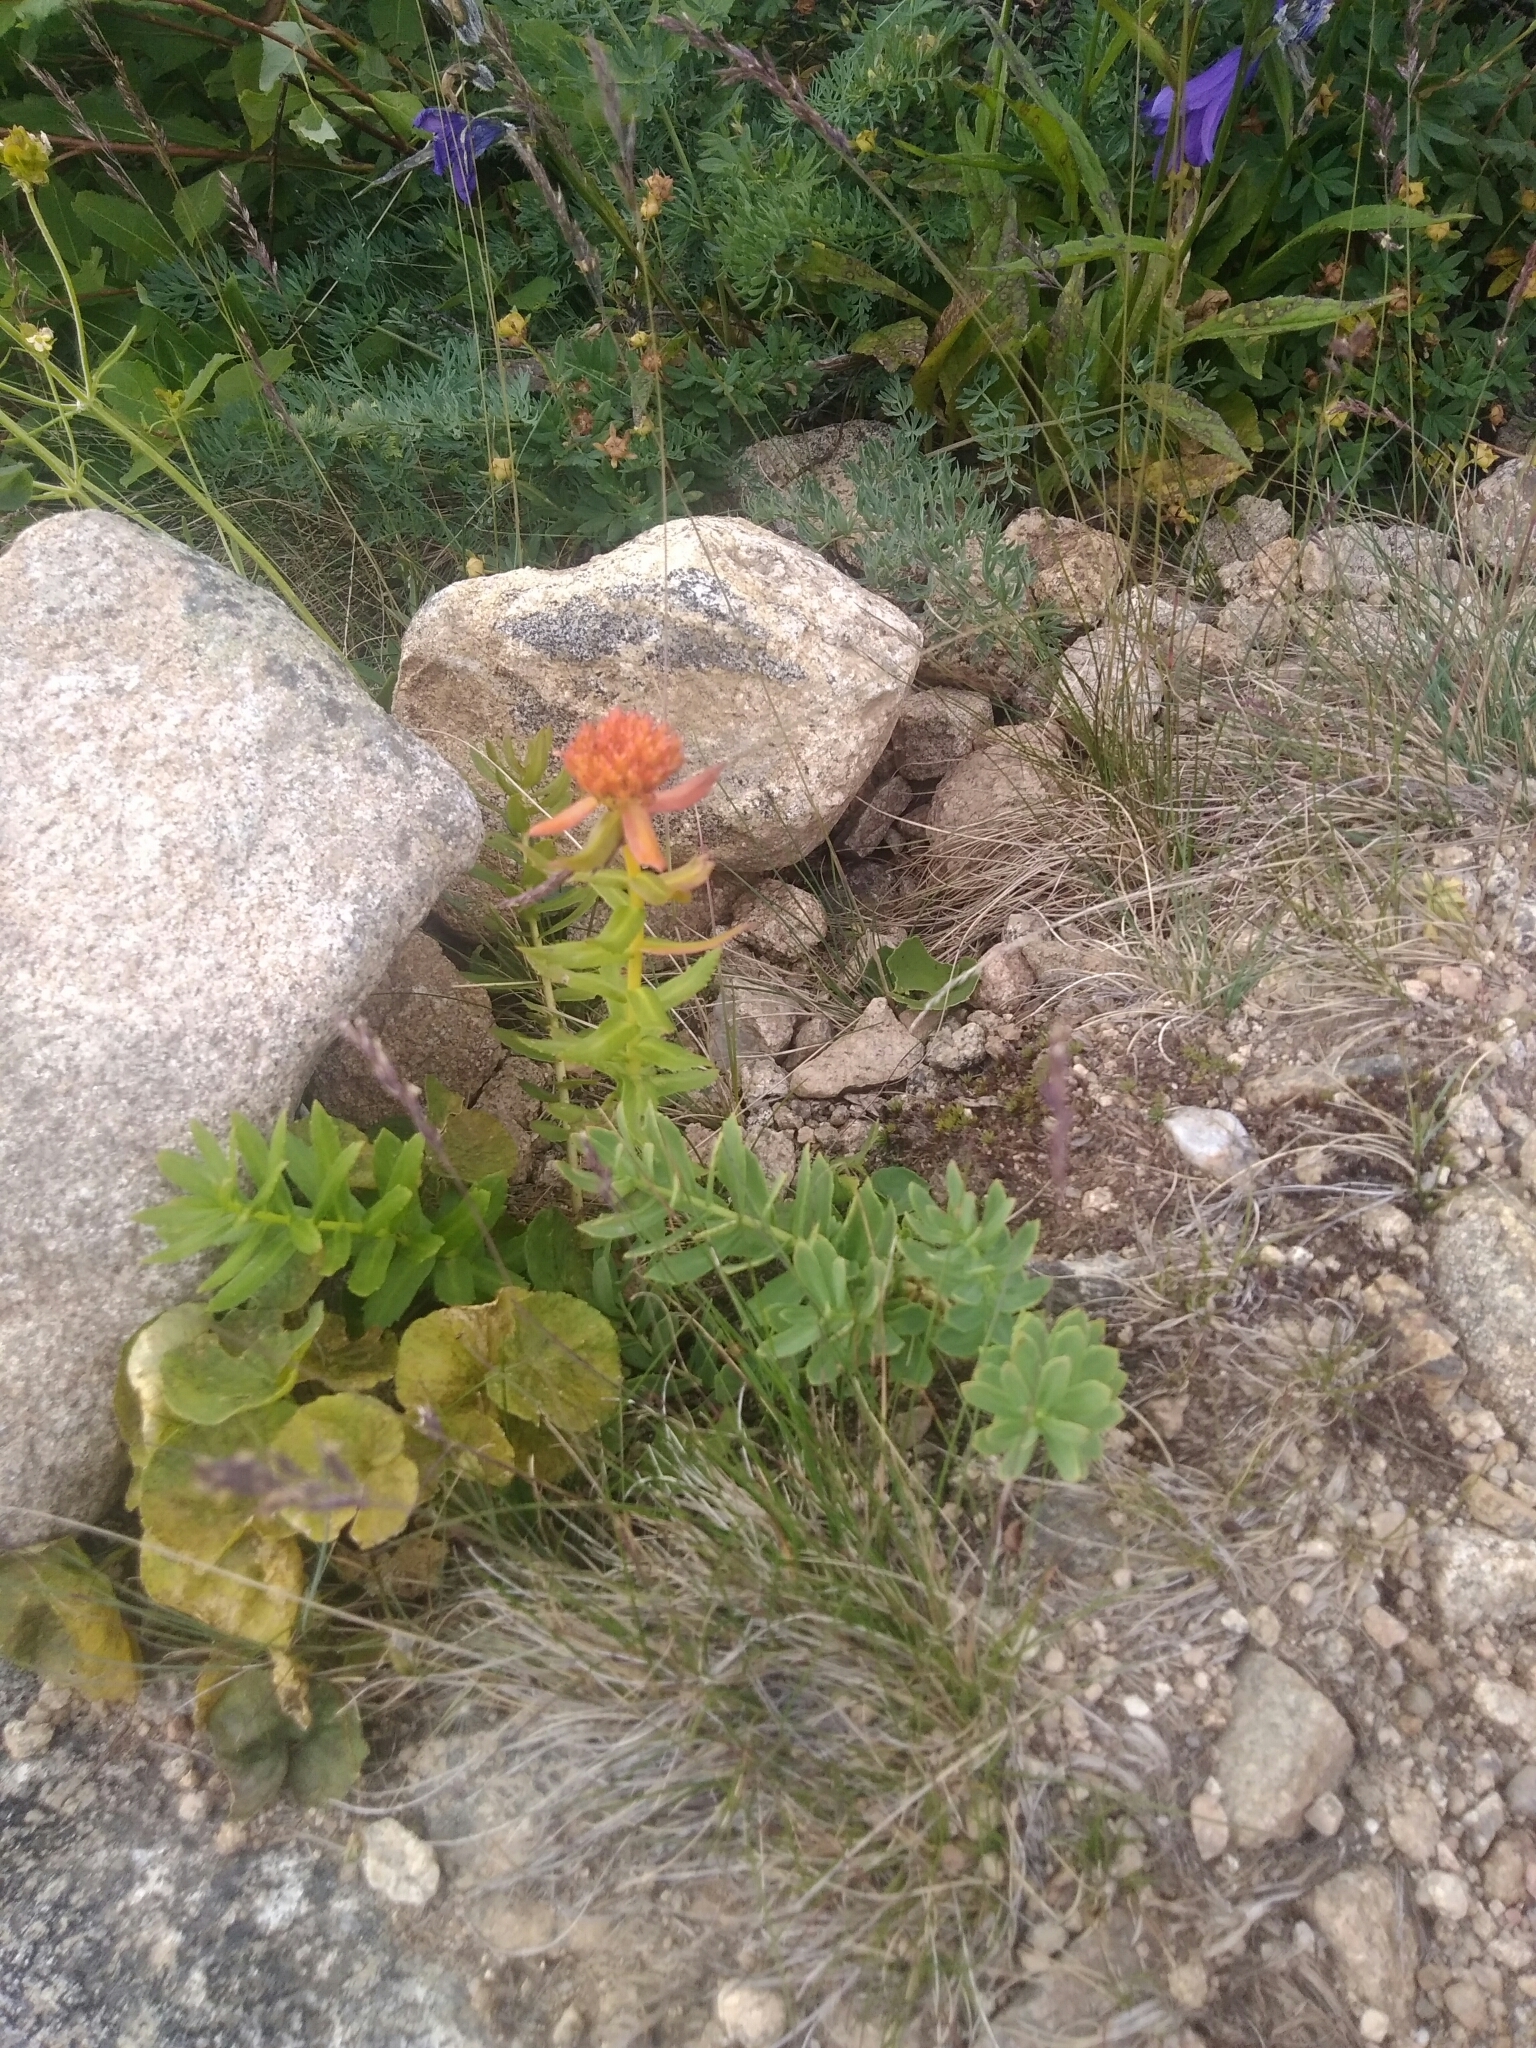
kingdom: Plantae
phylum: Tracheophyta
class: Magnoliopsida
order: Saxifragales
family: Crassulaceae
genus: Rhodiola
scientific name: Rhodiola rosea
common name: Roseroot
